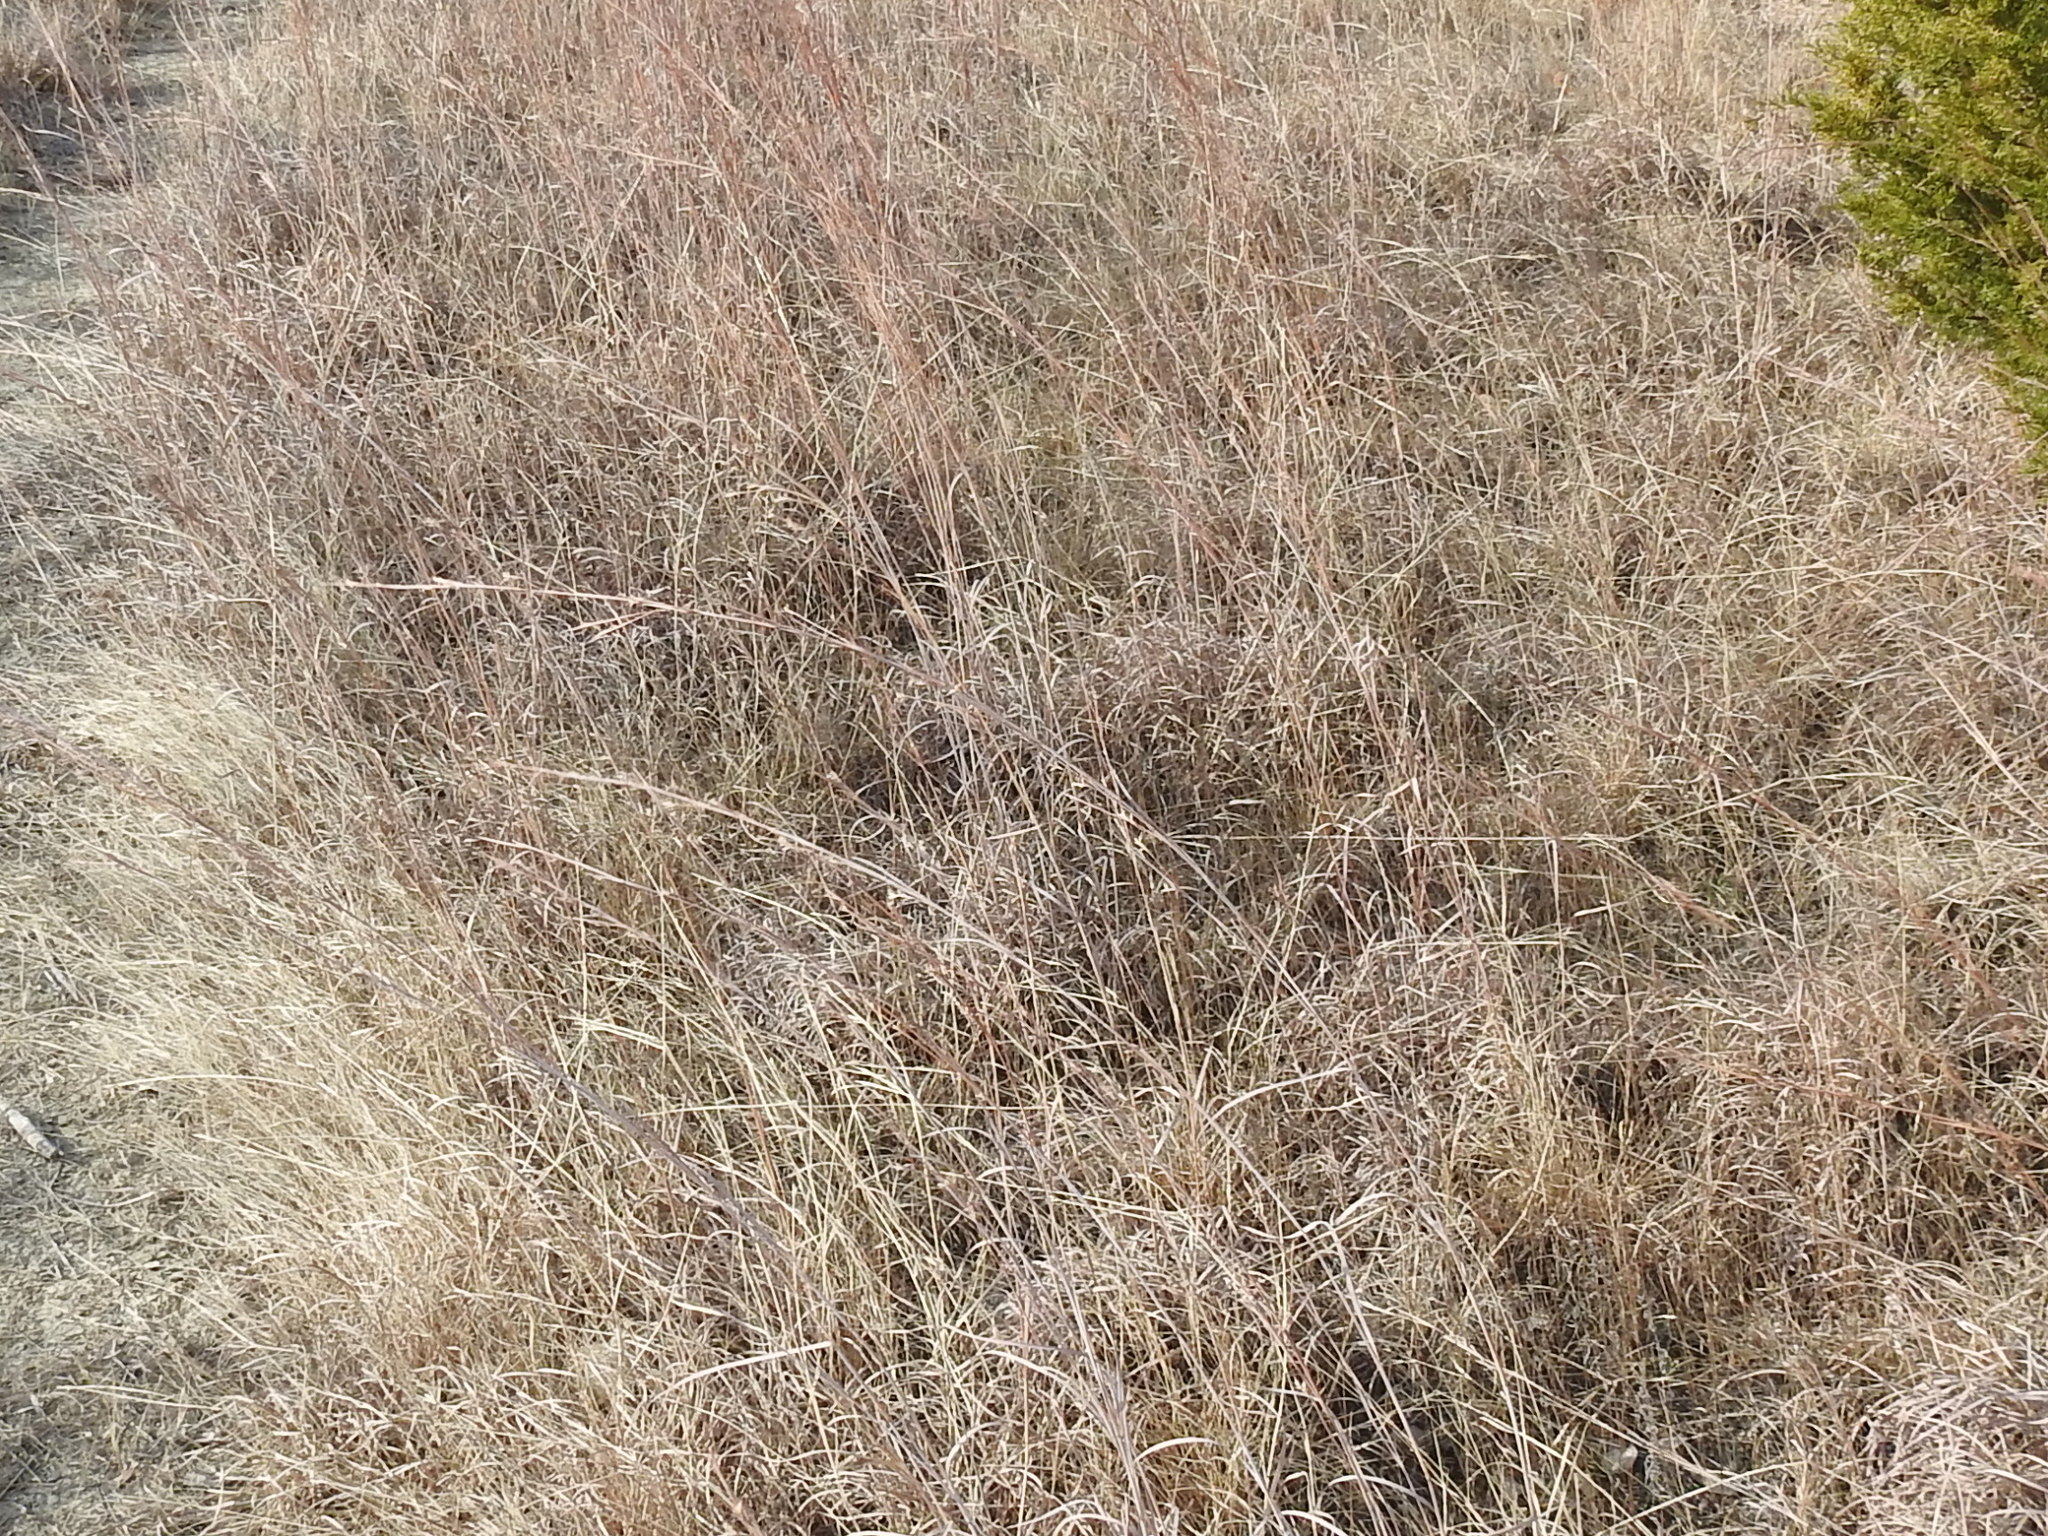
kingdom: Plantae
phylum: Tracheophyta
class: Liliopsida
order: Poales
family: Poaceae
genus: Schizachyrium
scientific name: Schizachyrium scoparium
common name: Little bluestem
